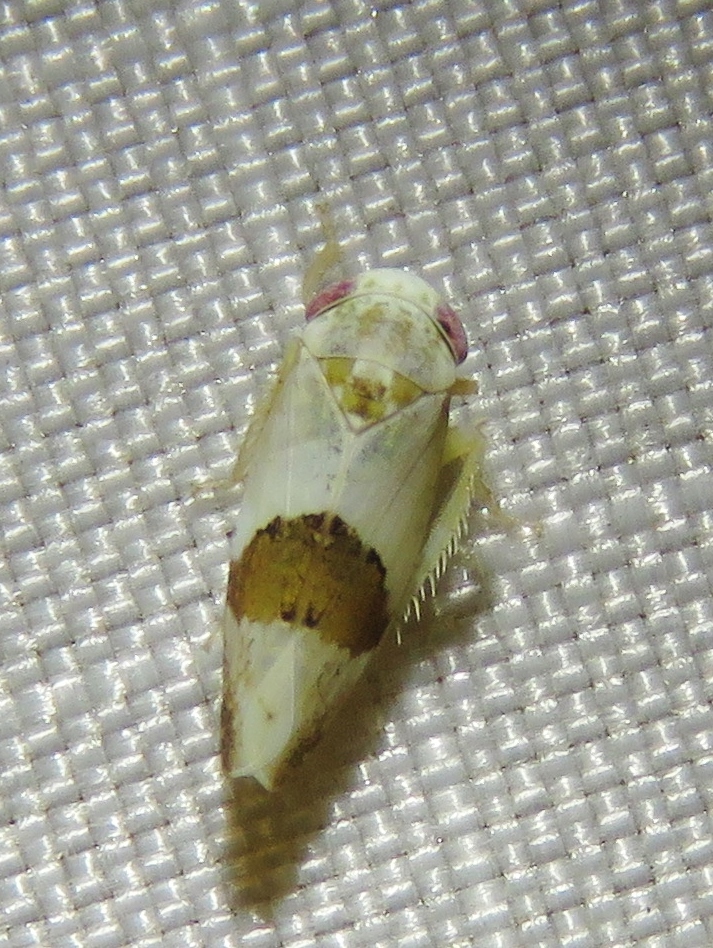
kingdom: Animalia
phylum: Arthropoda
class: Insecta
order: Hemiptera
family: Cicadellidae
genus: Norvellina
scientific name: Norvellina seminuda
